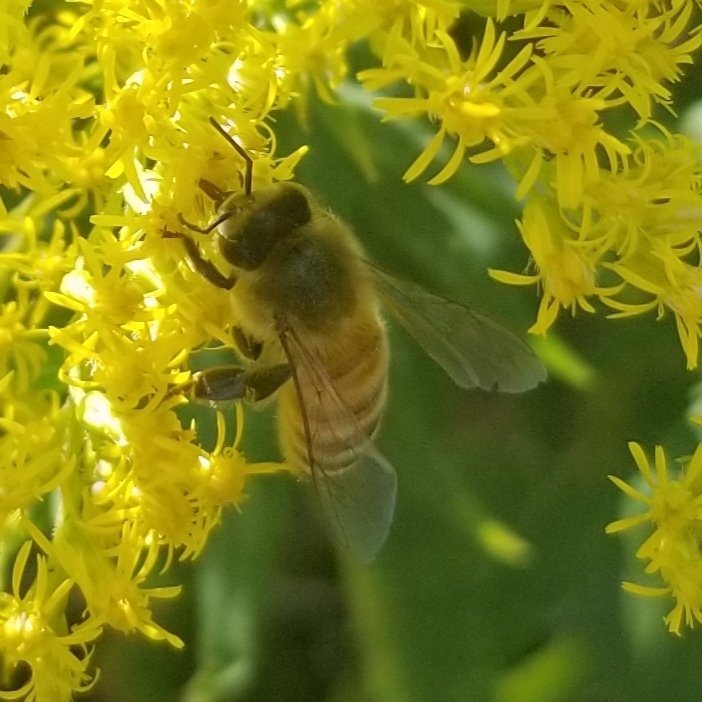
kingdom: Animalia
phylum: Arthropoda
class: Insecta
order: Hymenoptera
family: Apidae
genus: Apis
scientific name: Apis mellifera
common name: Honey bee
